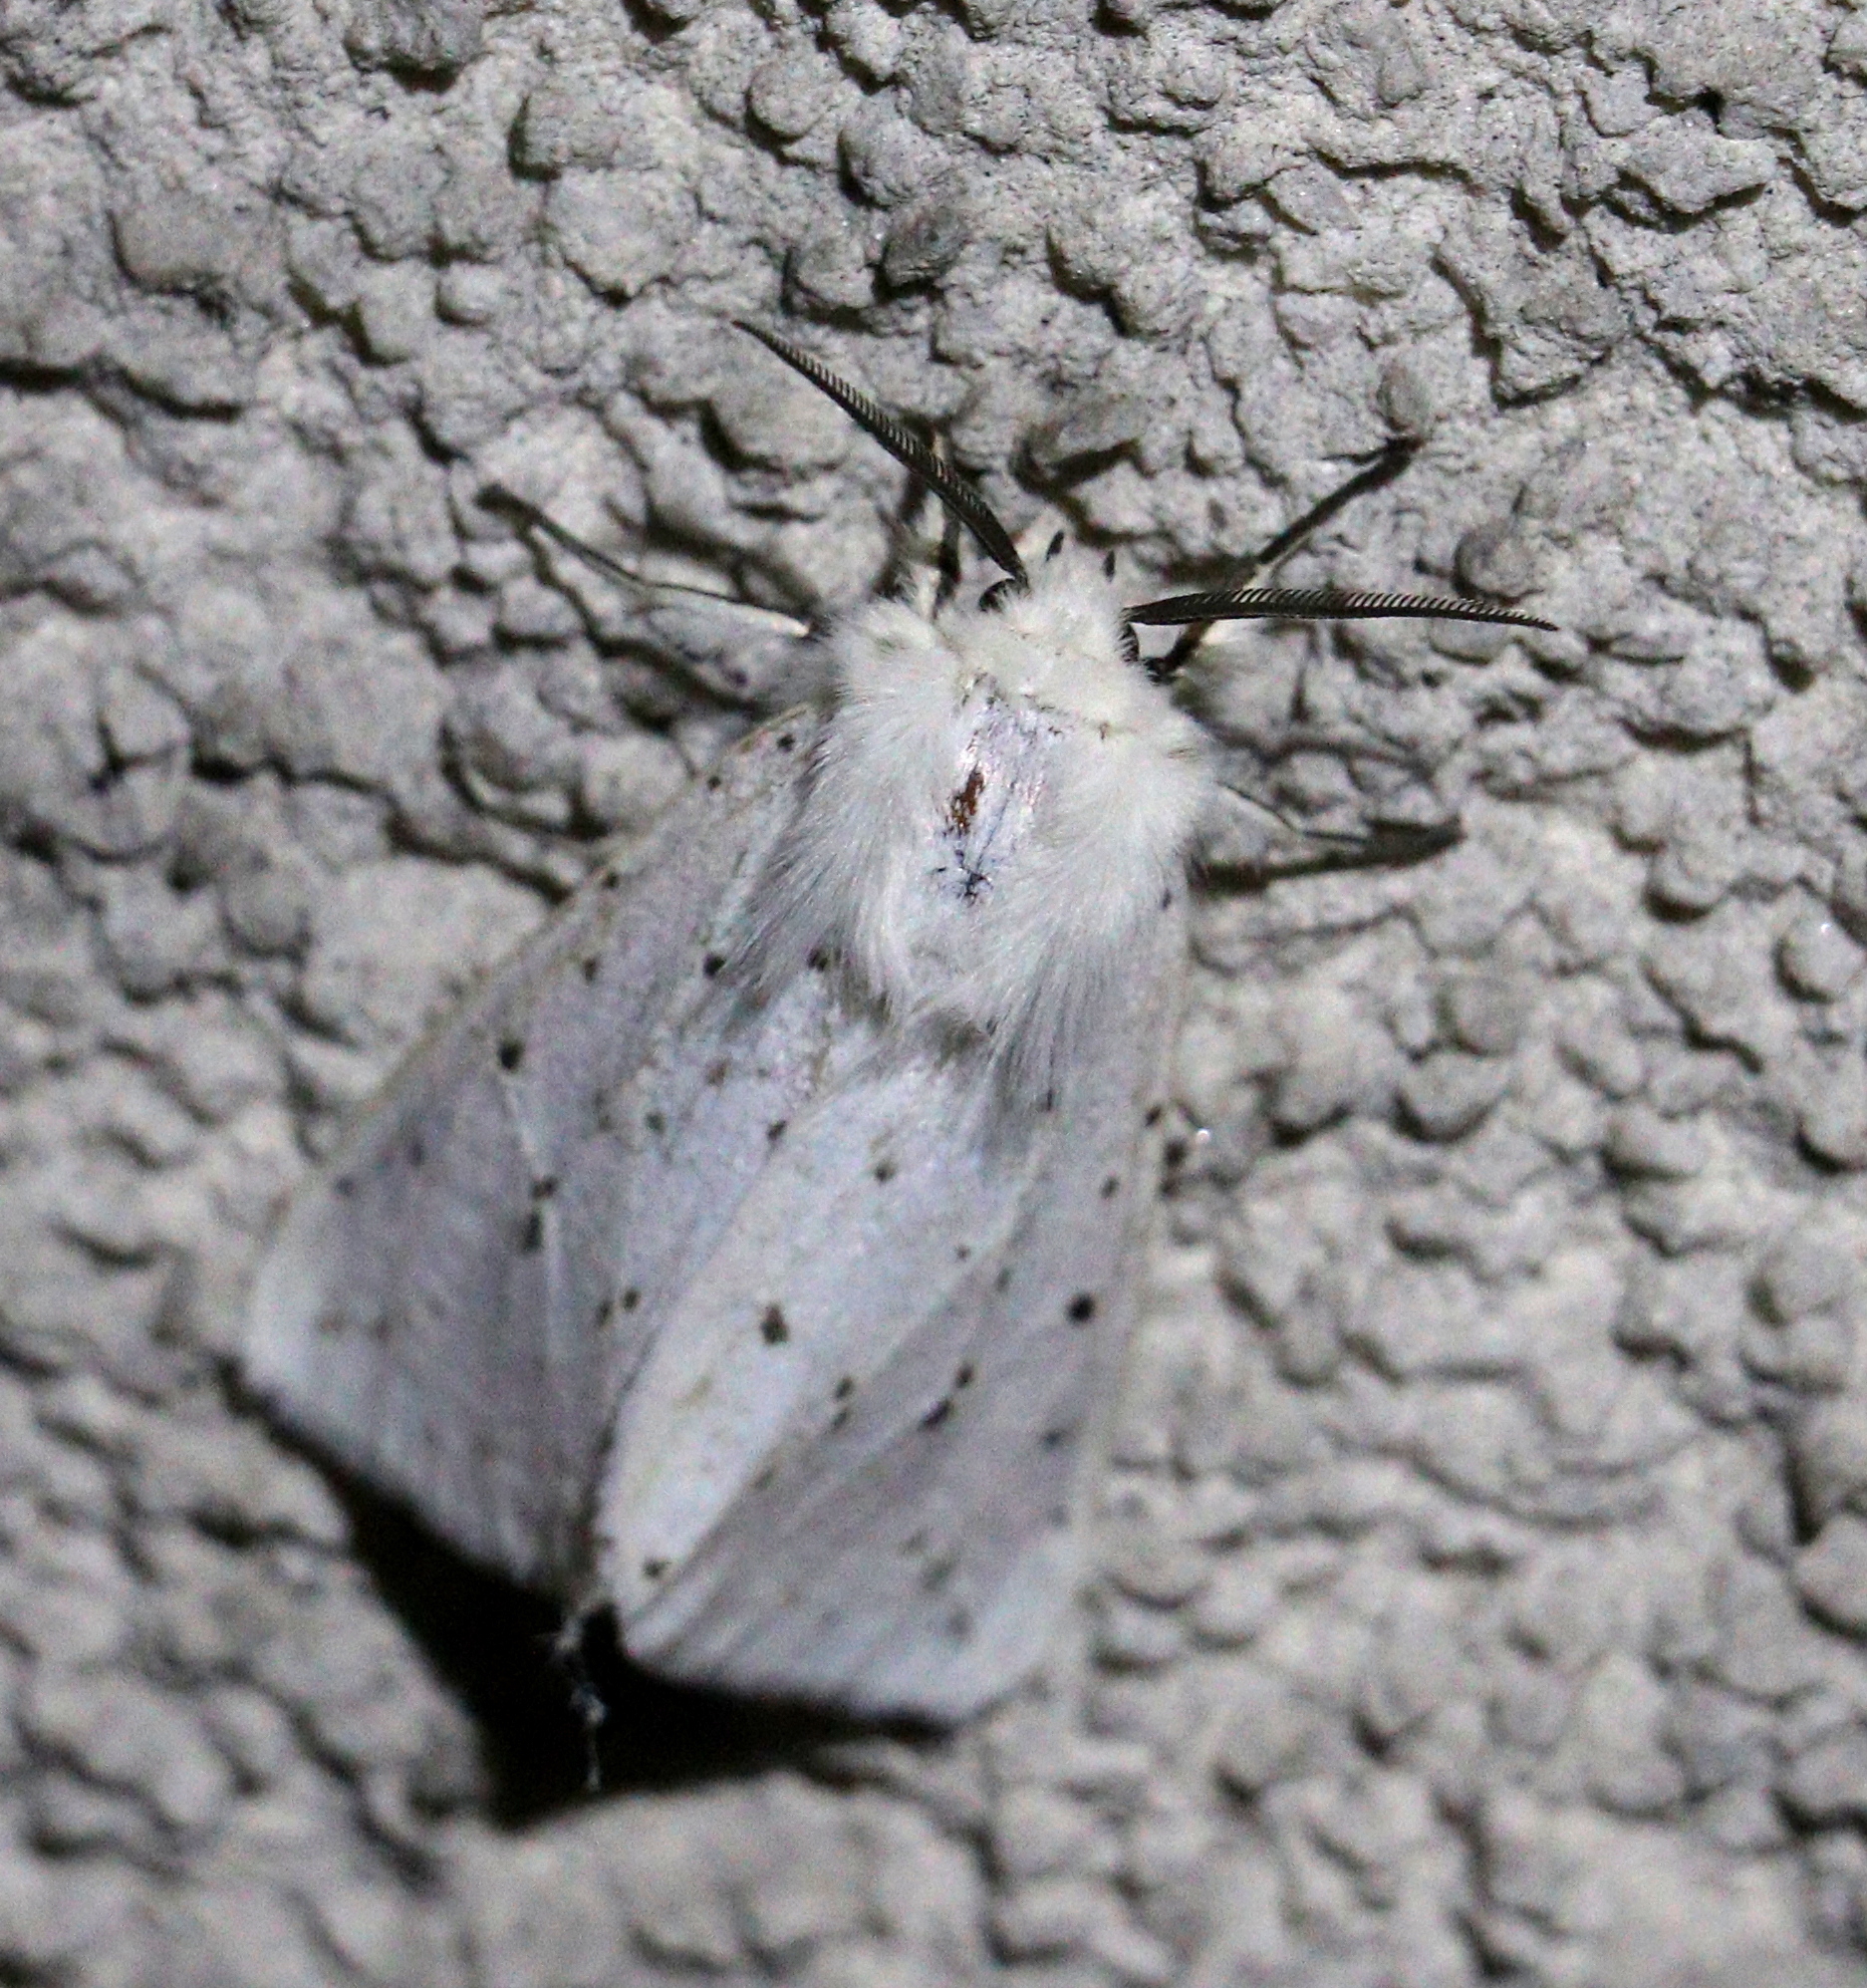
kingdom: Animalia
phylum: Arthropoda
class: Insecta
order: Lepidoptera
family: Erebidae
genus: Spilosoma
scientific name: Spilosoma lubricipeda
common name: White ermine
